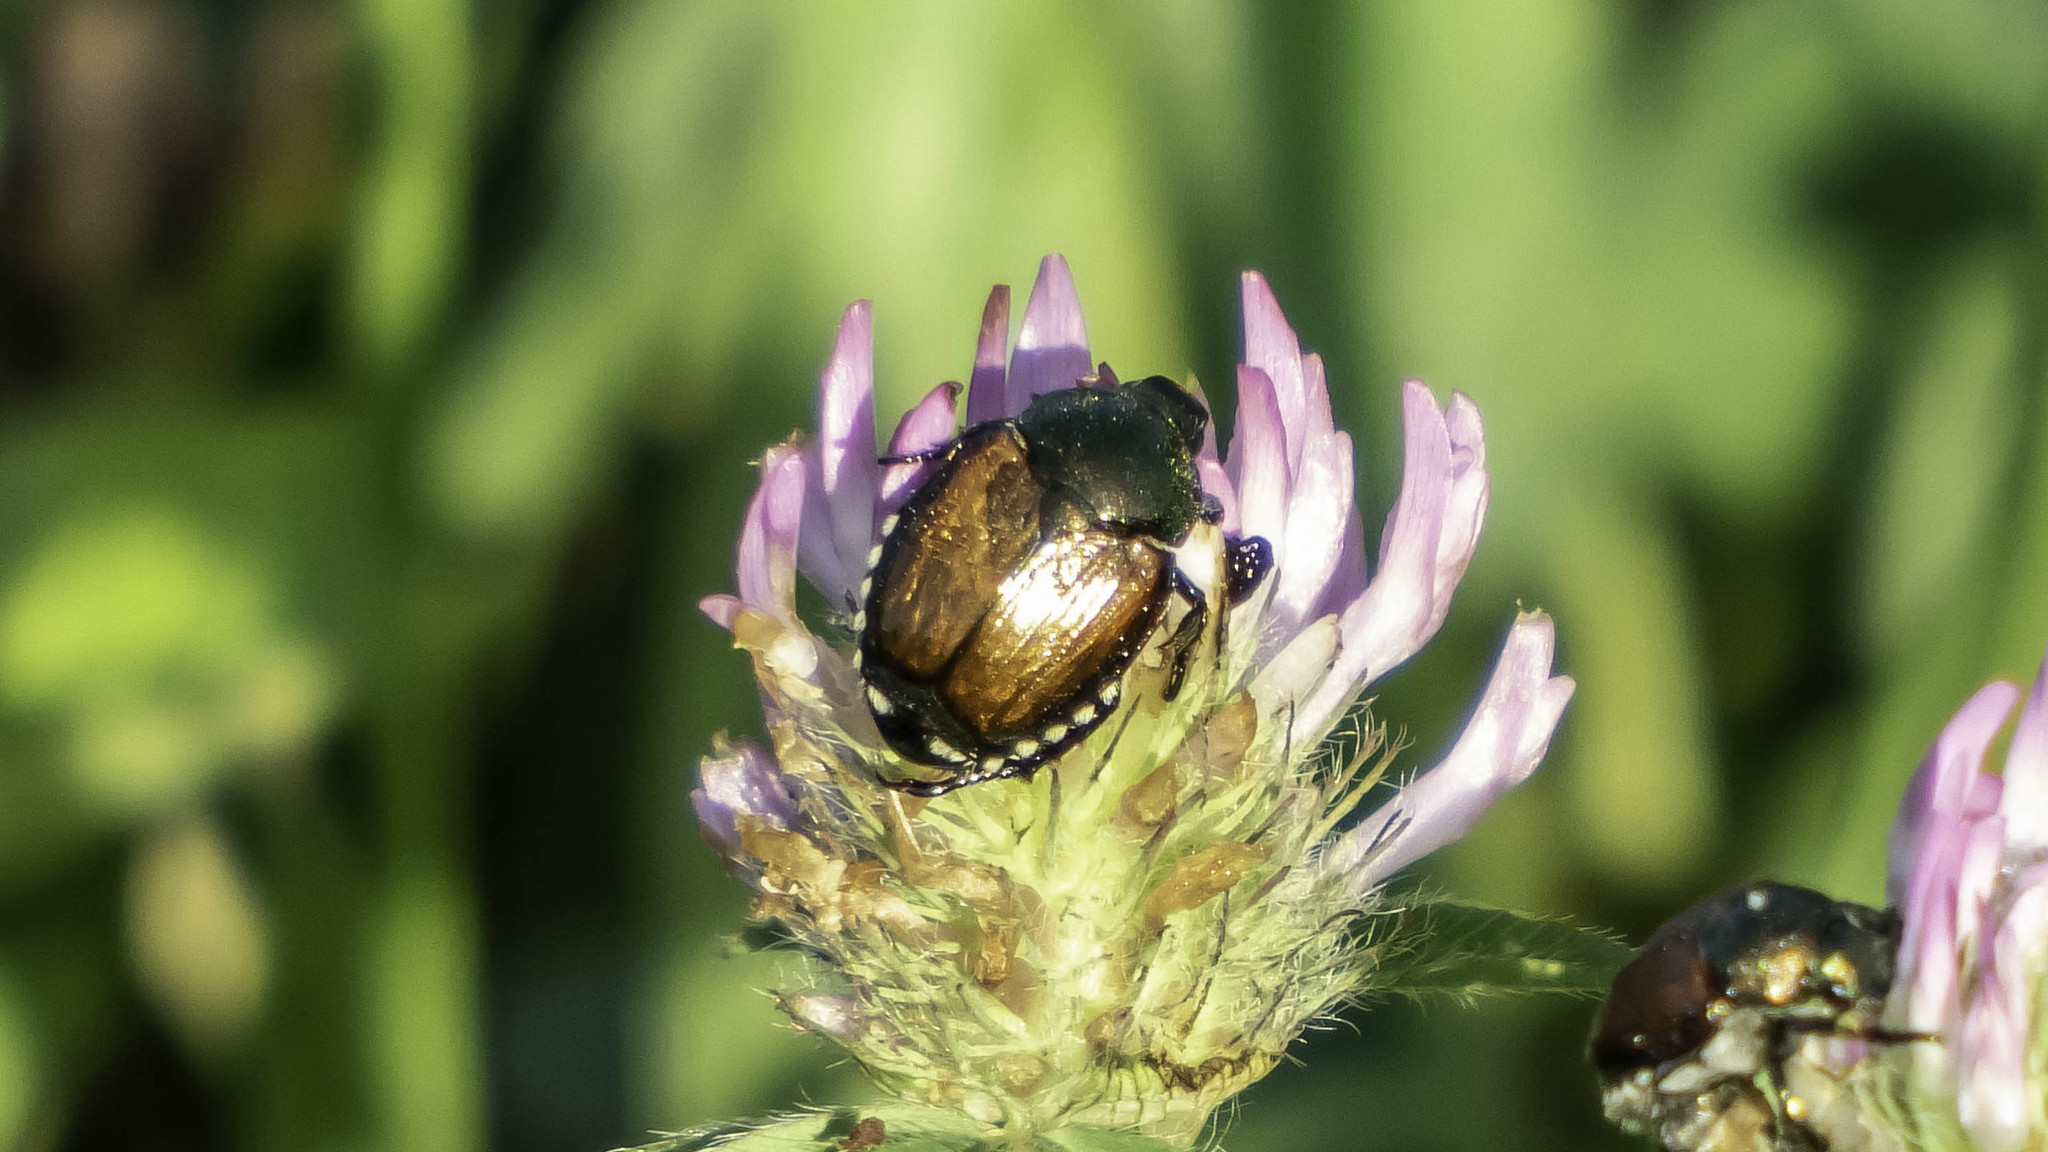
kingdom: Animalia
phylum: Arthropoda
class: Insecta
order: Coleoptera
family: Scarabaeidae
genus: Popillia
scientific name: Popillia japonica
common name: Japanese beetle
